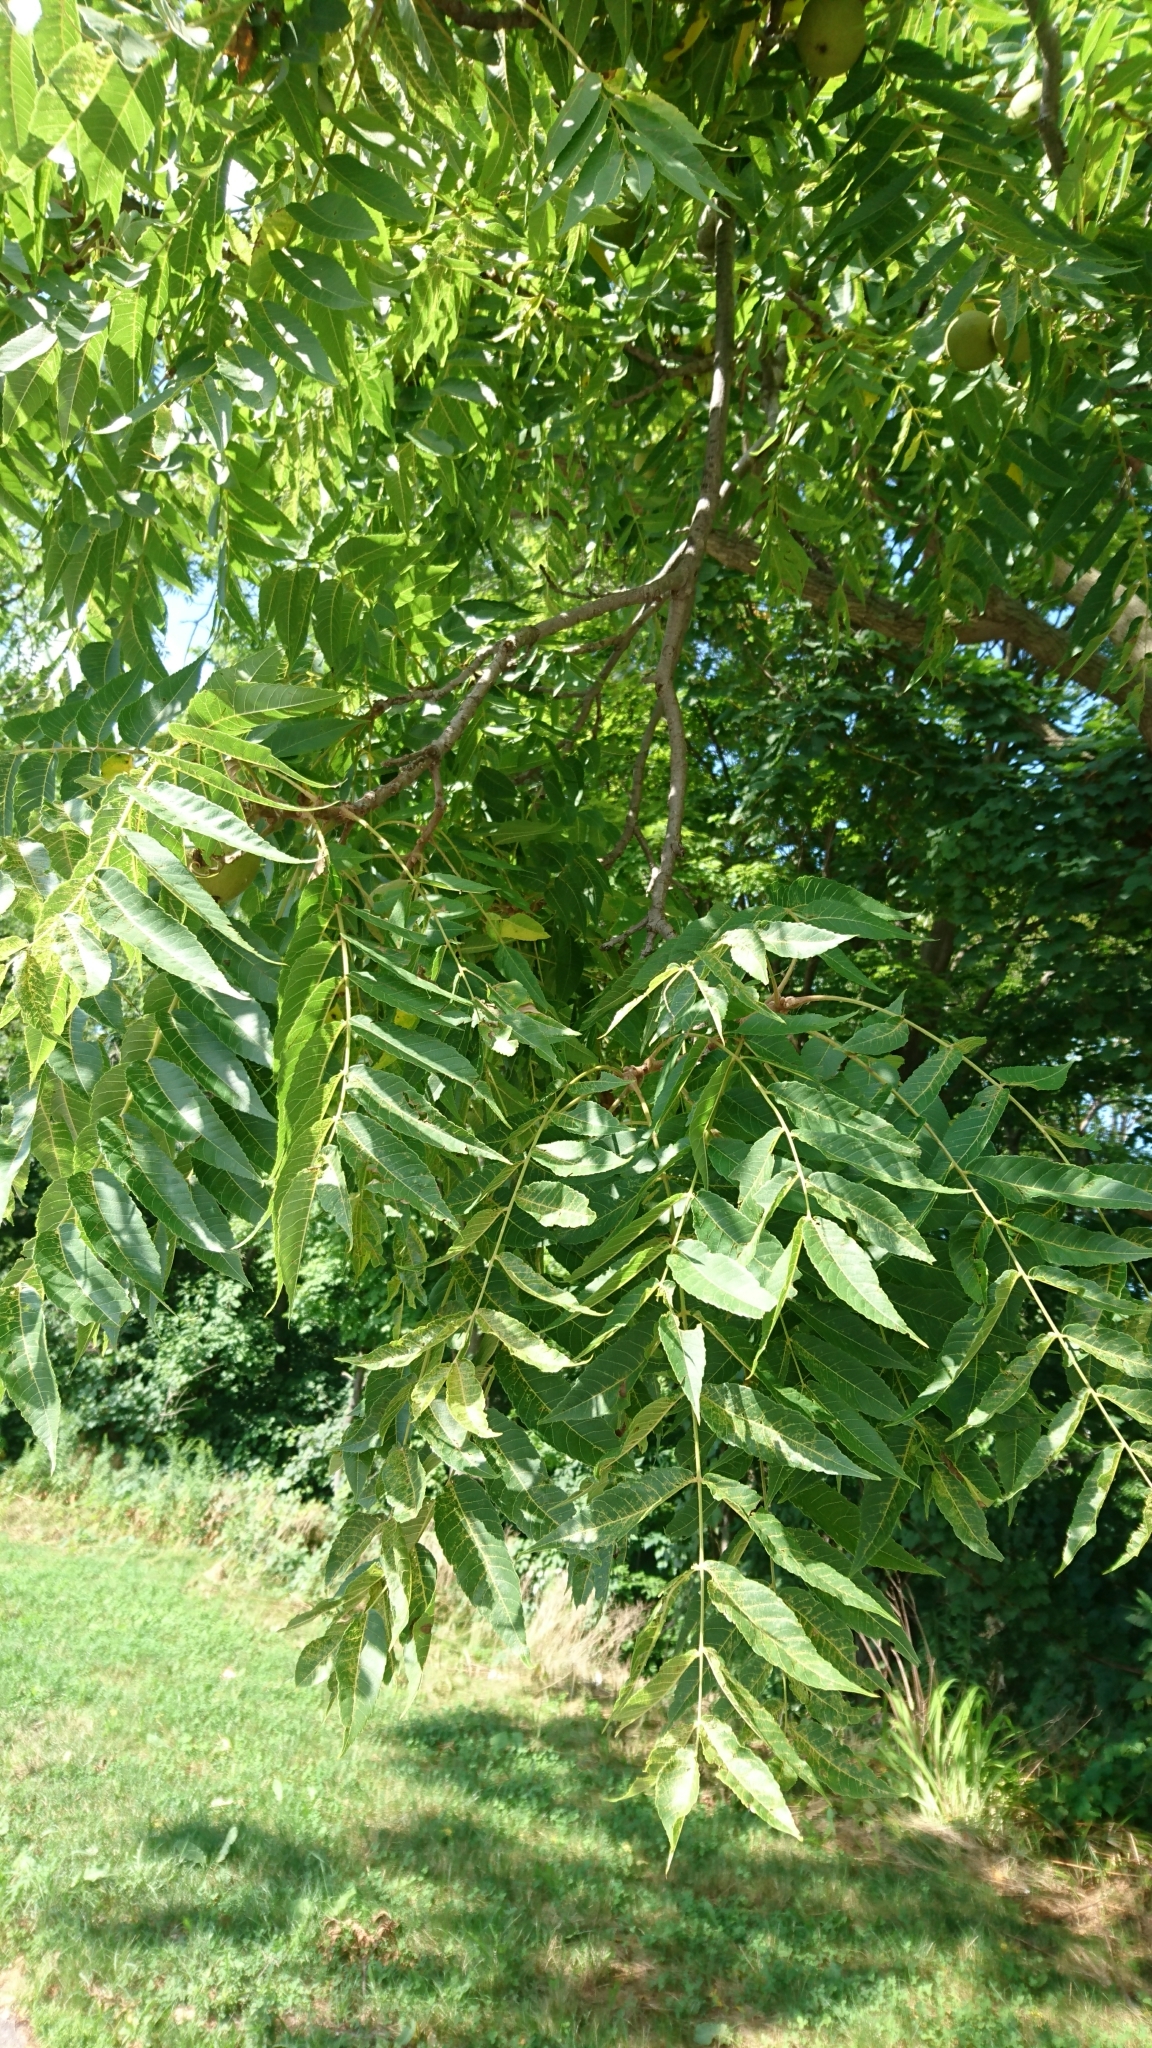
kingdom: Plantae
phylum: Tracheophyta
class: Magnoliopsida
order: Fagales
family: Juglandaceae
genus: Juglans
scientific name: Juglans nigra
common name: Black walnut
